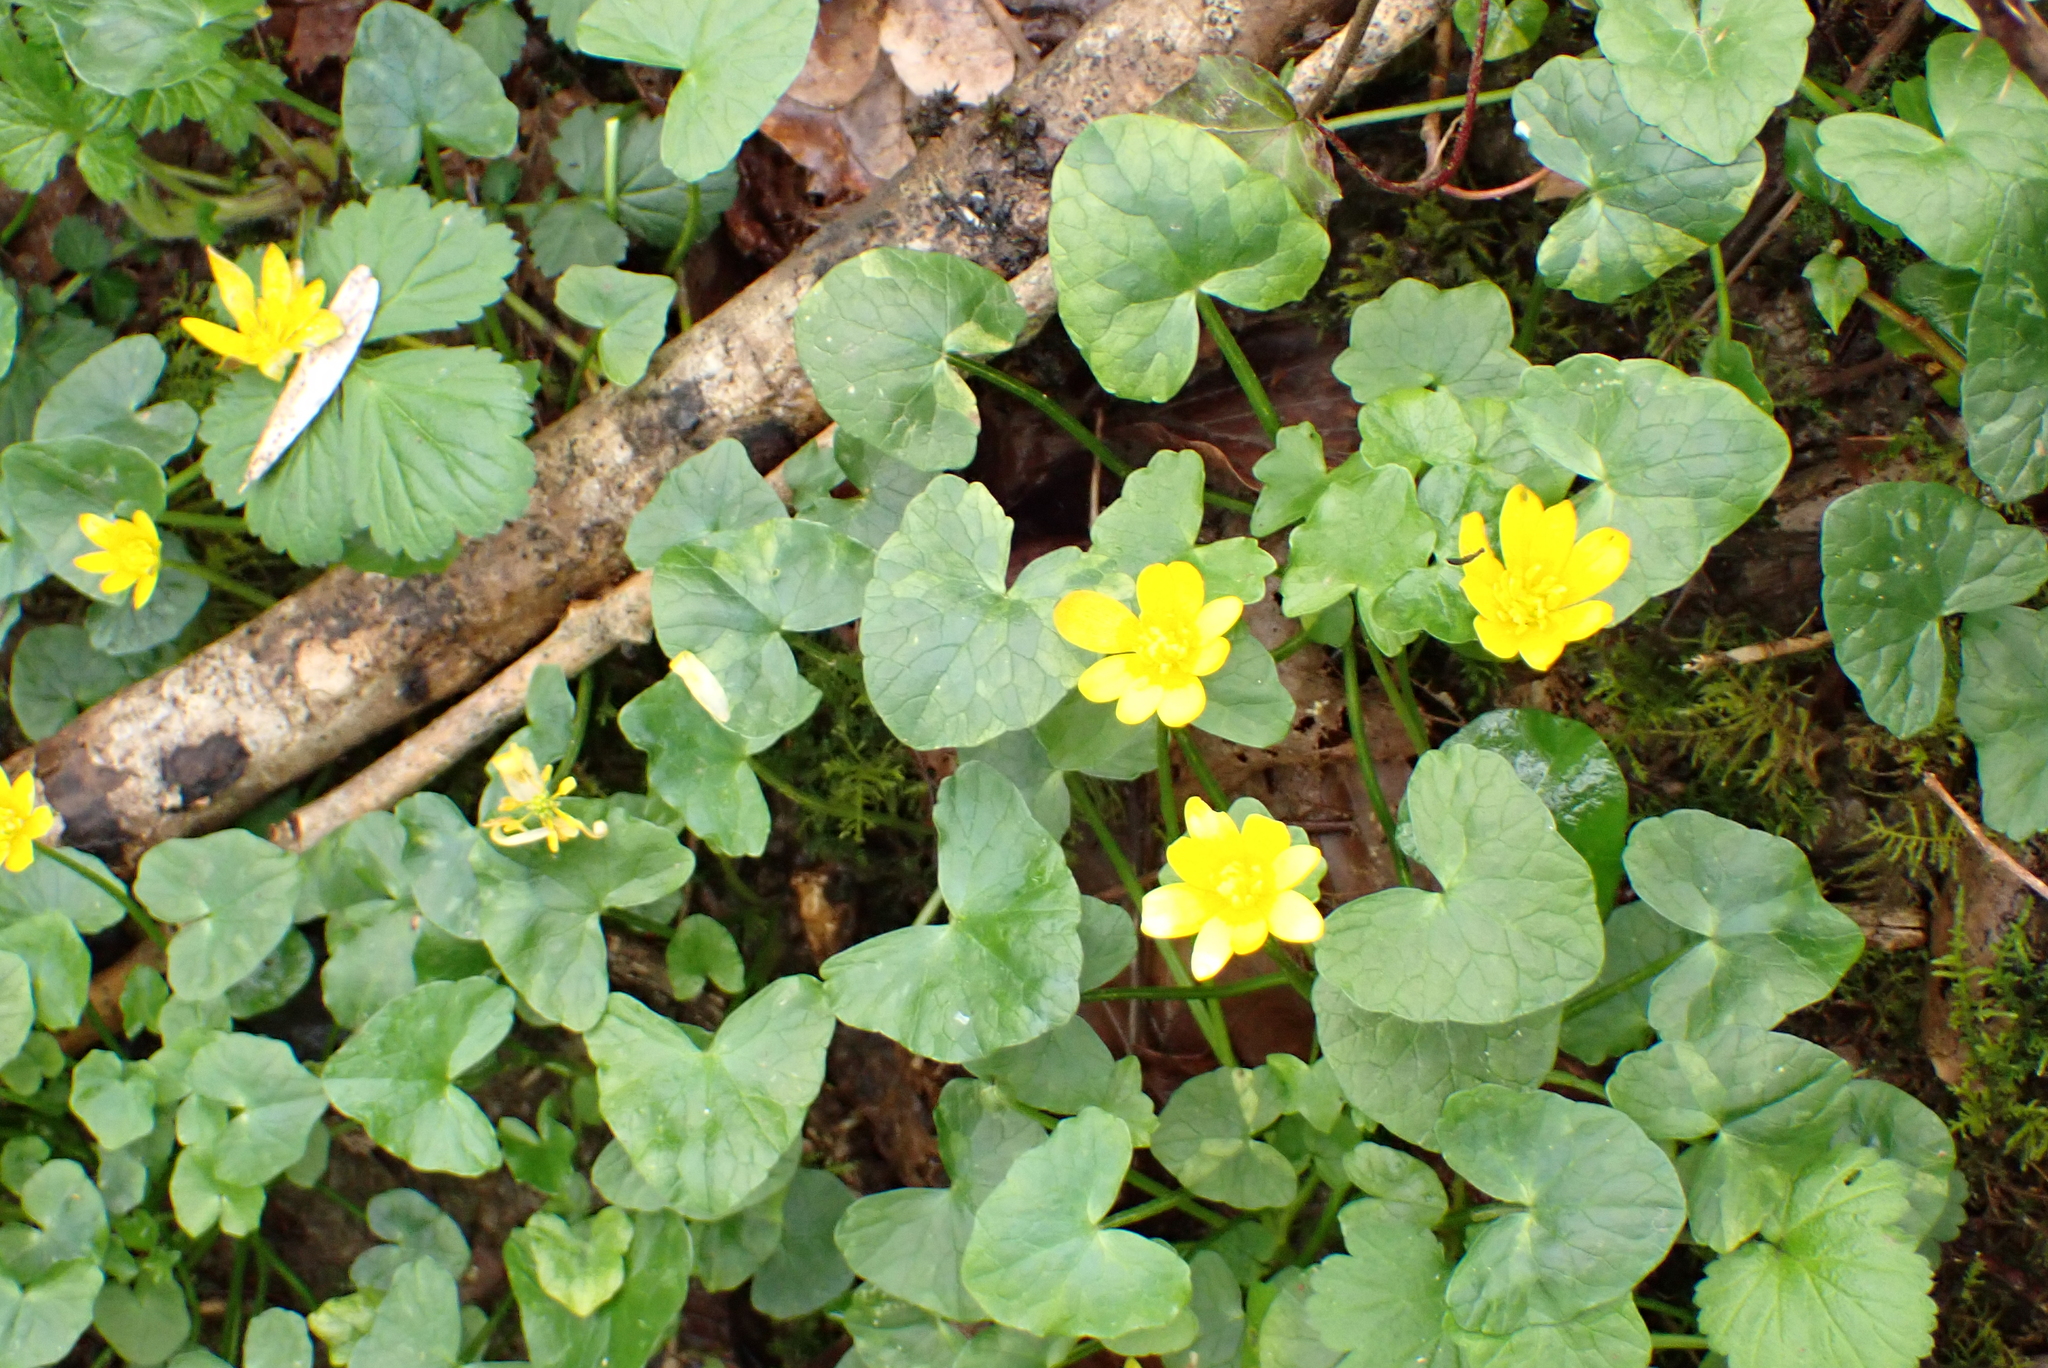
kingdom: Plantae
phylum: Tracheophyta
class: Magnoliopsida
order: Ranunculales
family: Ranunculaceae
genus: Ficaria
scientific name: Ficaria verna
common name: Lesser celandine
